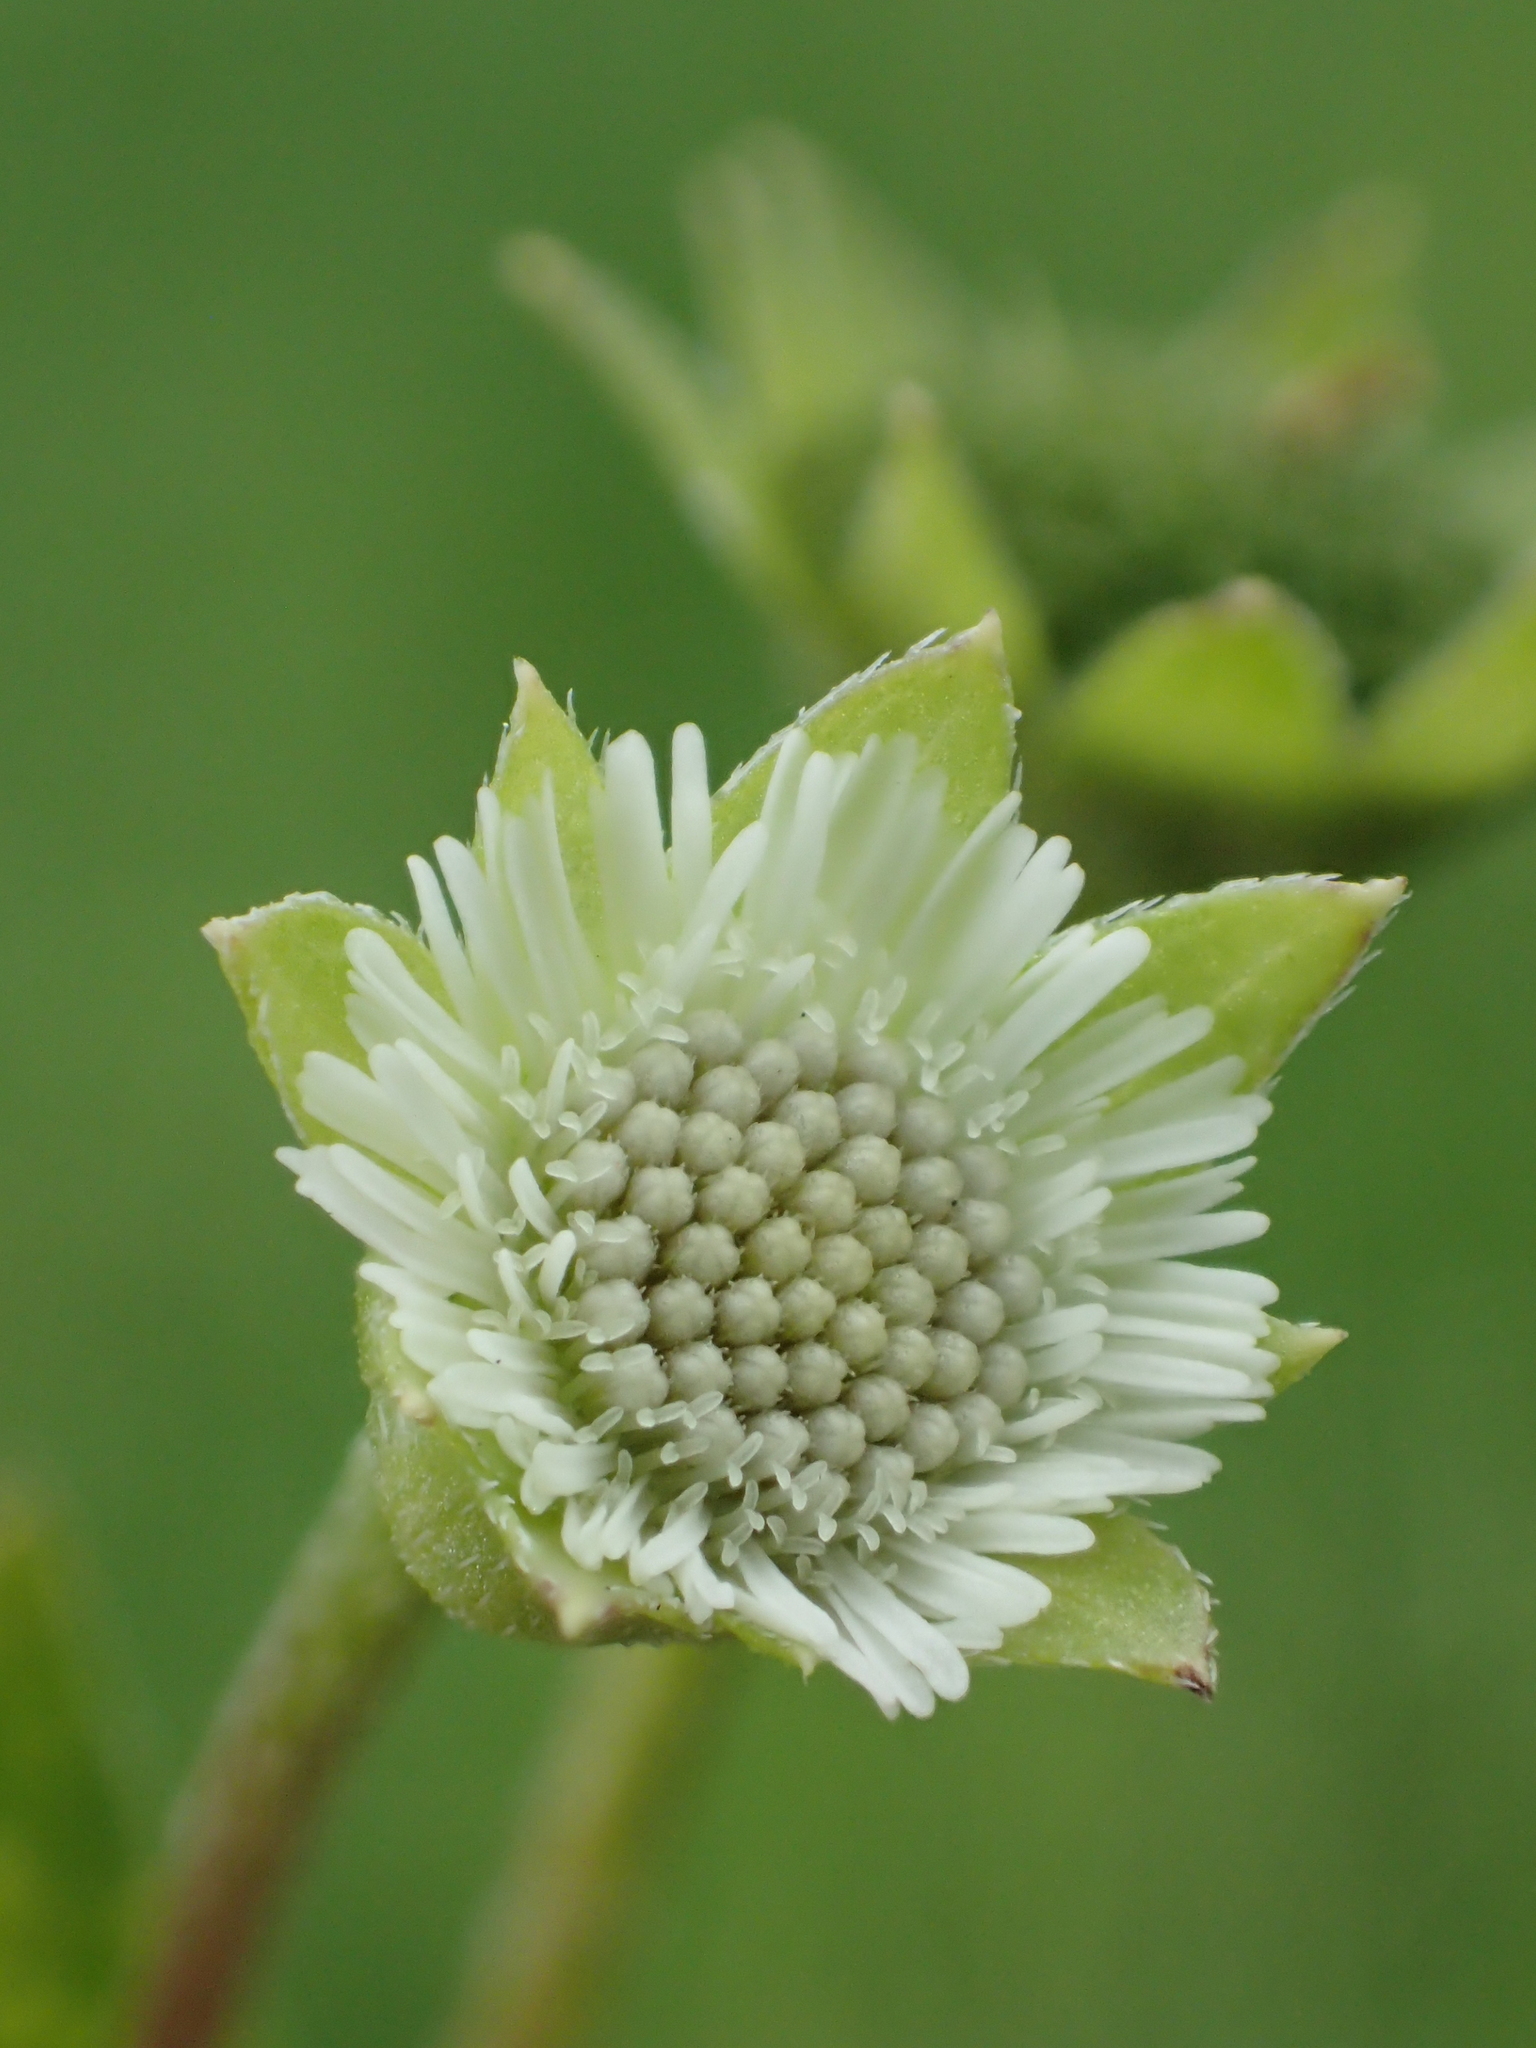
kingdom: Plantae
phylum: Tracheophyta
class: Magnoliopsida
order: Asterales
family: Asteraceae
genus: Eclipta
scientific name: Eclipta prostrata
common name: False daisy
